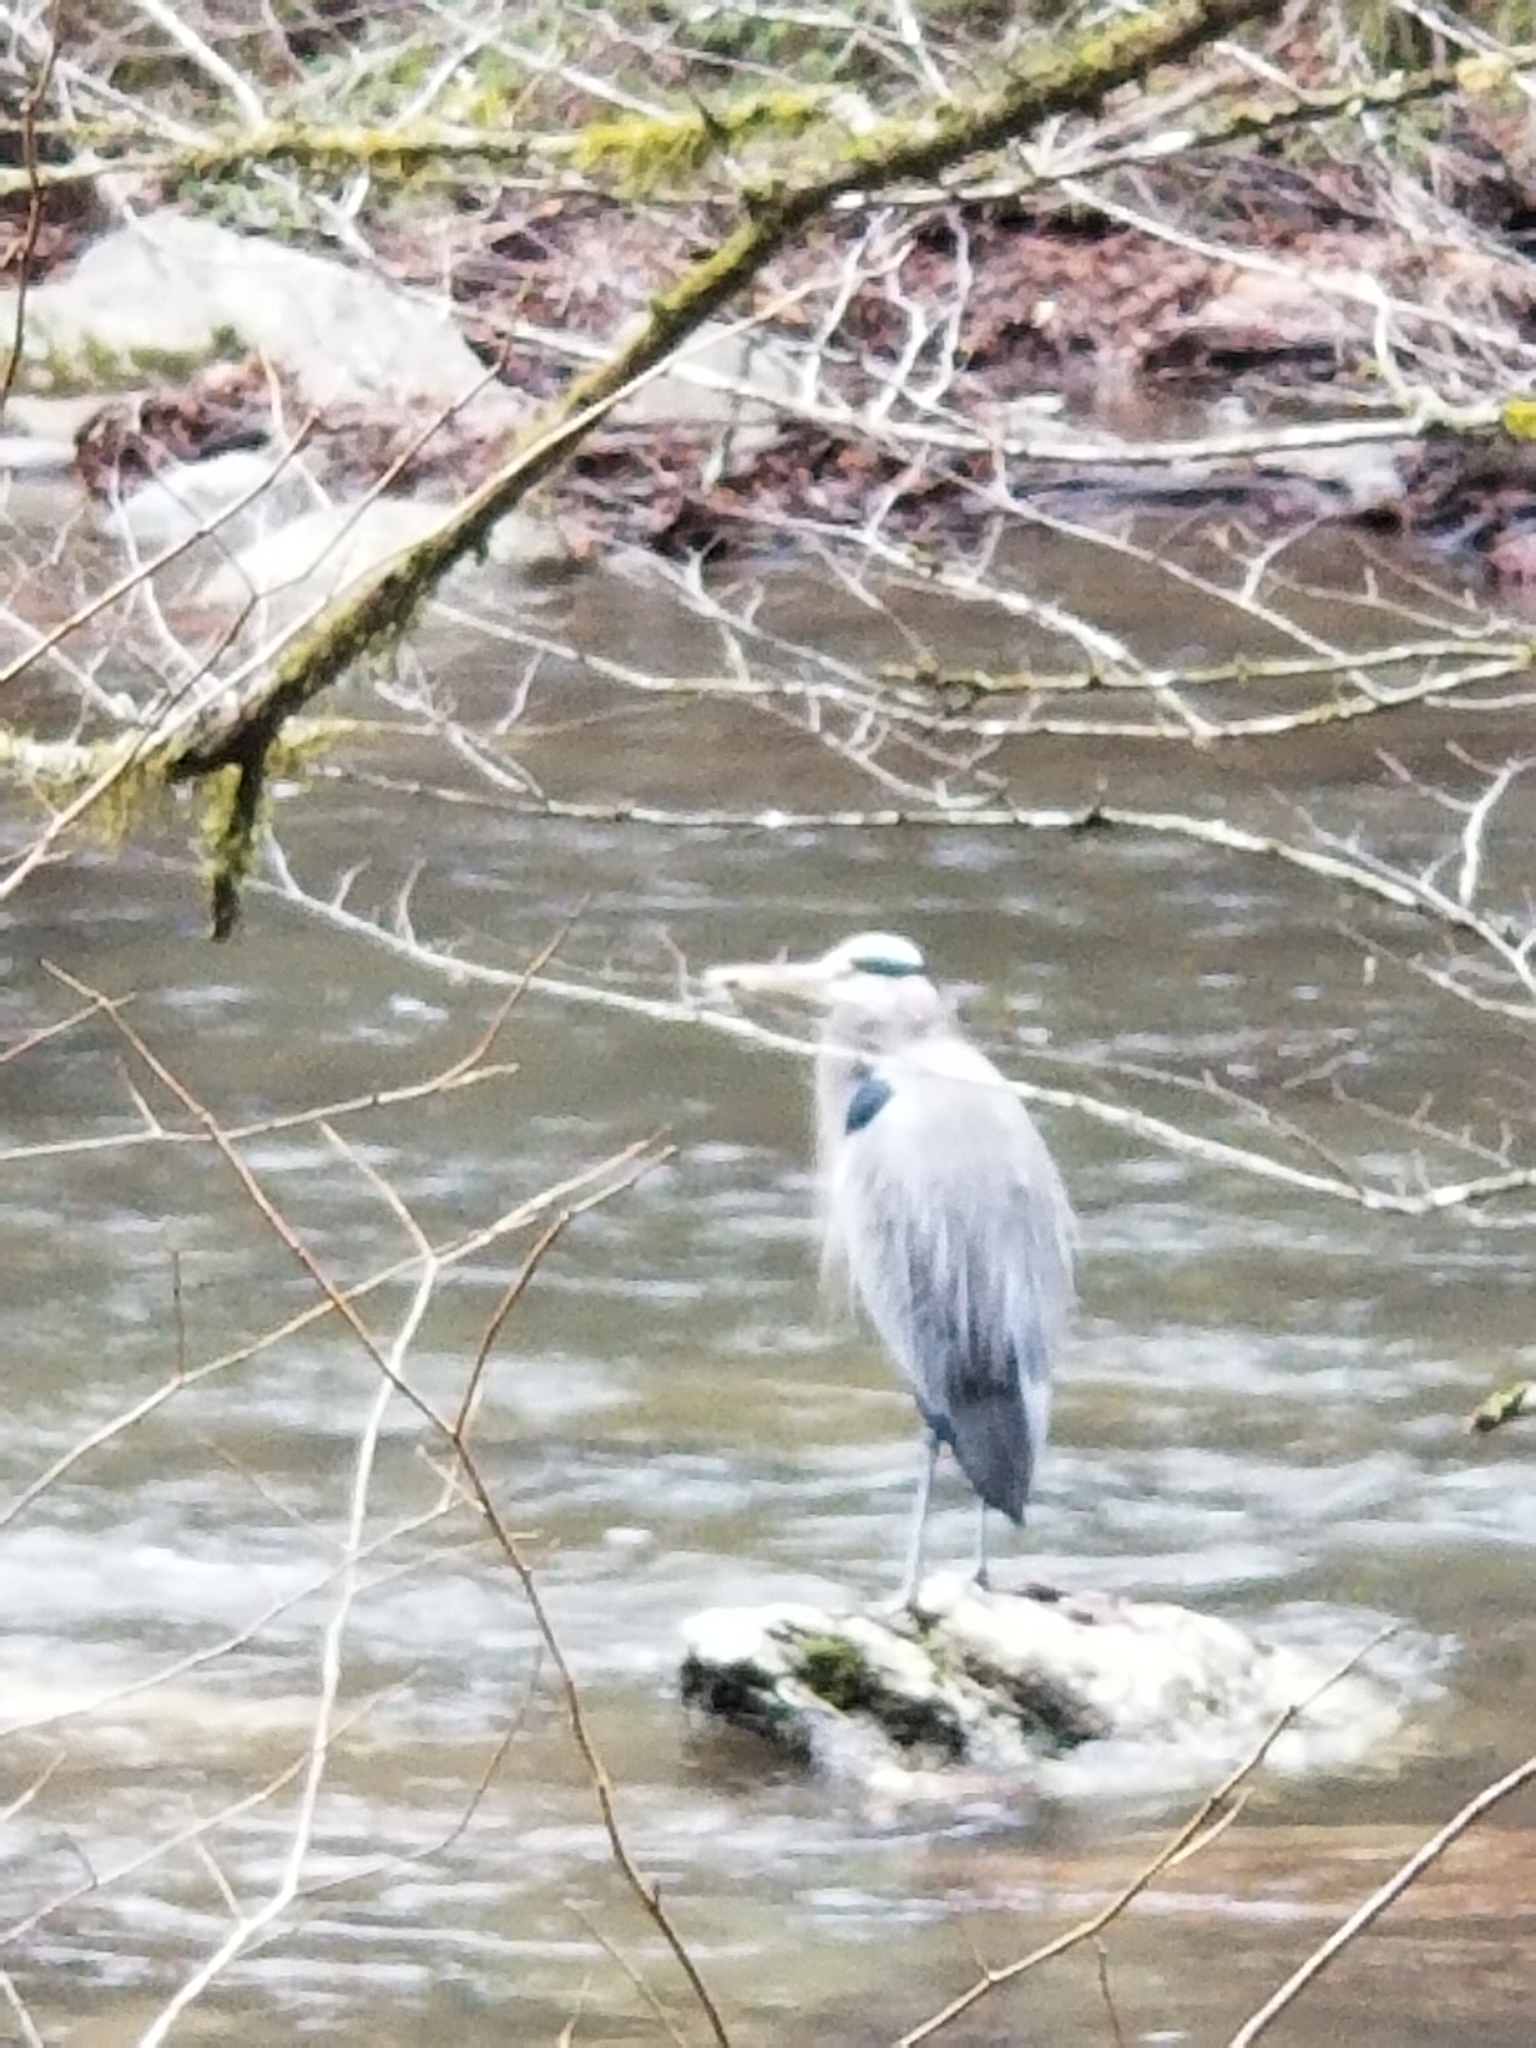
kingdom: Animalia
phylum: Chordata
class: Aves
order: Pelecaniformes
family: Ardeidae
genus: Ardea
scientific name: Ardea herodias
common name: Great blue heron
